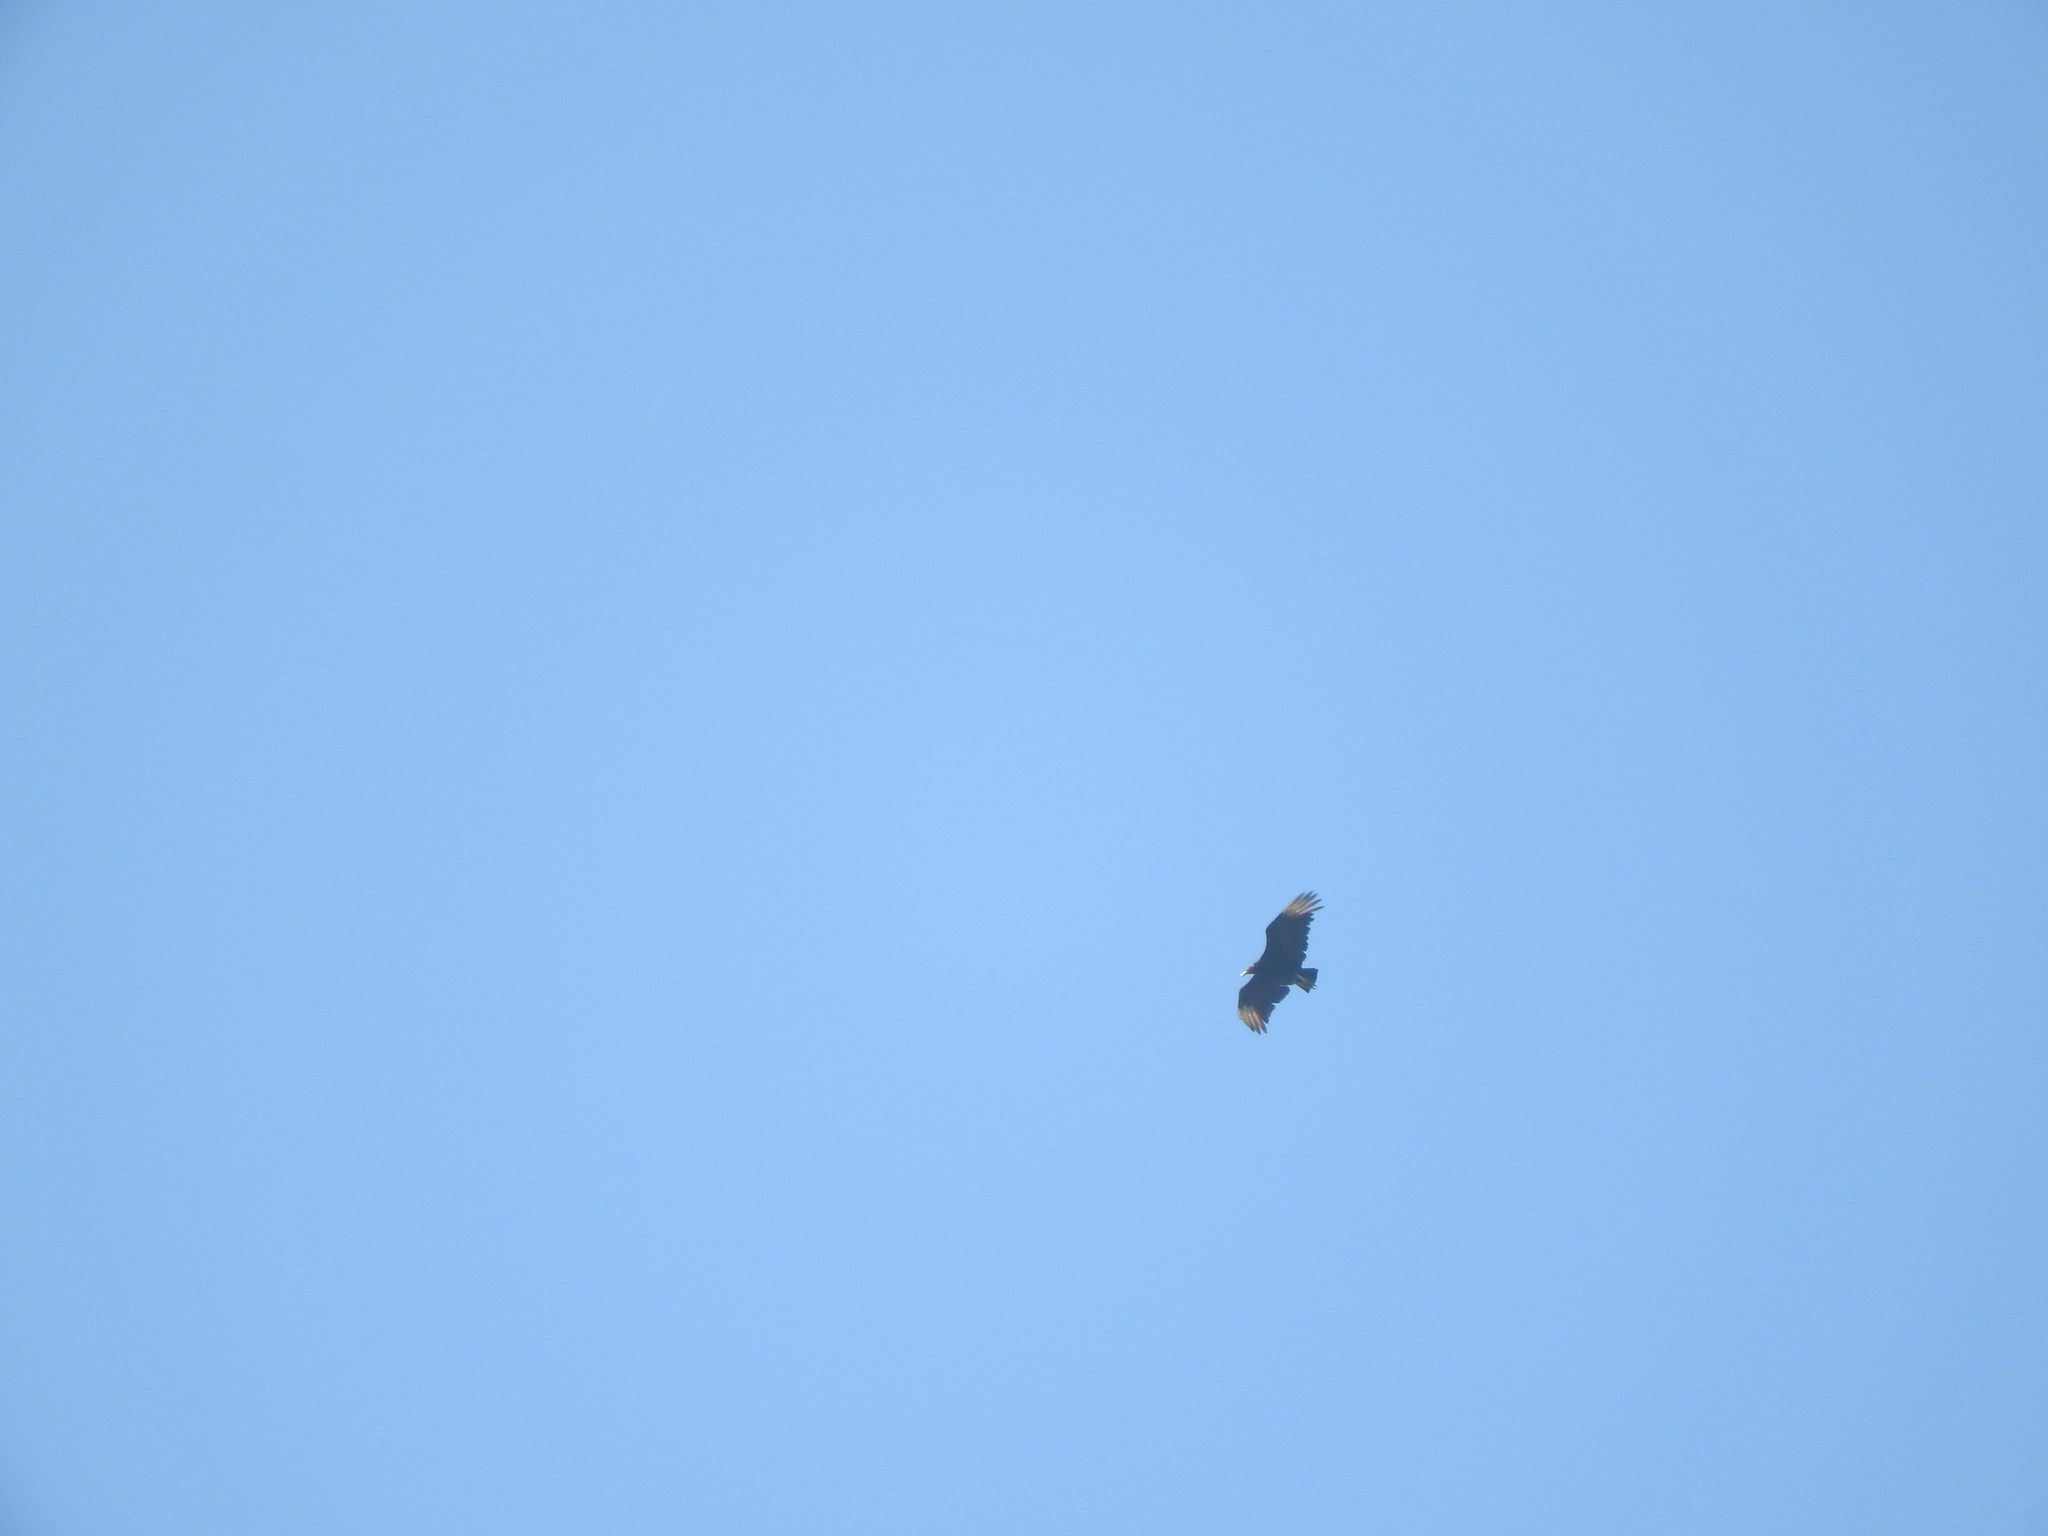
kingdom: Animalia
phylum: Chordata
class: Aves
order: Accipitriformes
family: Cathartidae
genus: Coragyps
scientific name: Coragyps atratus
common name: Black vulture
